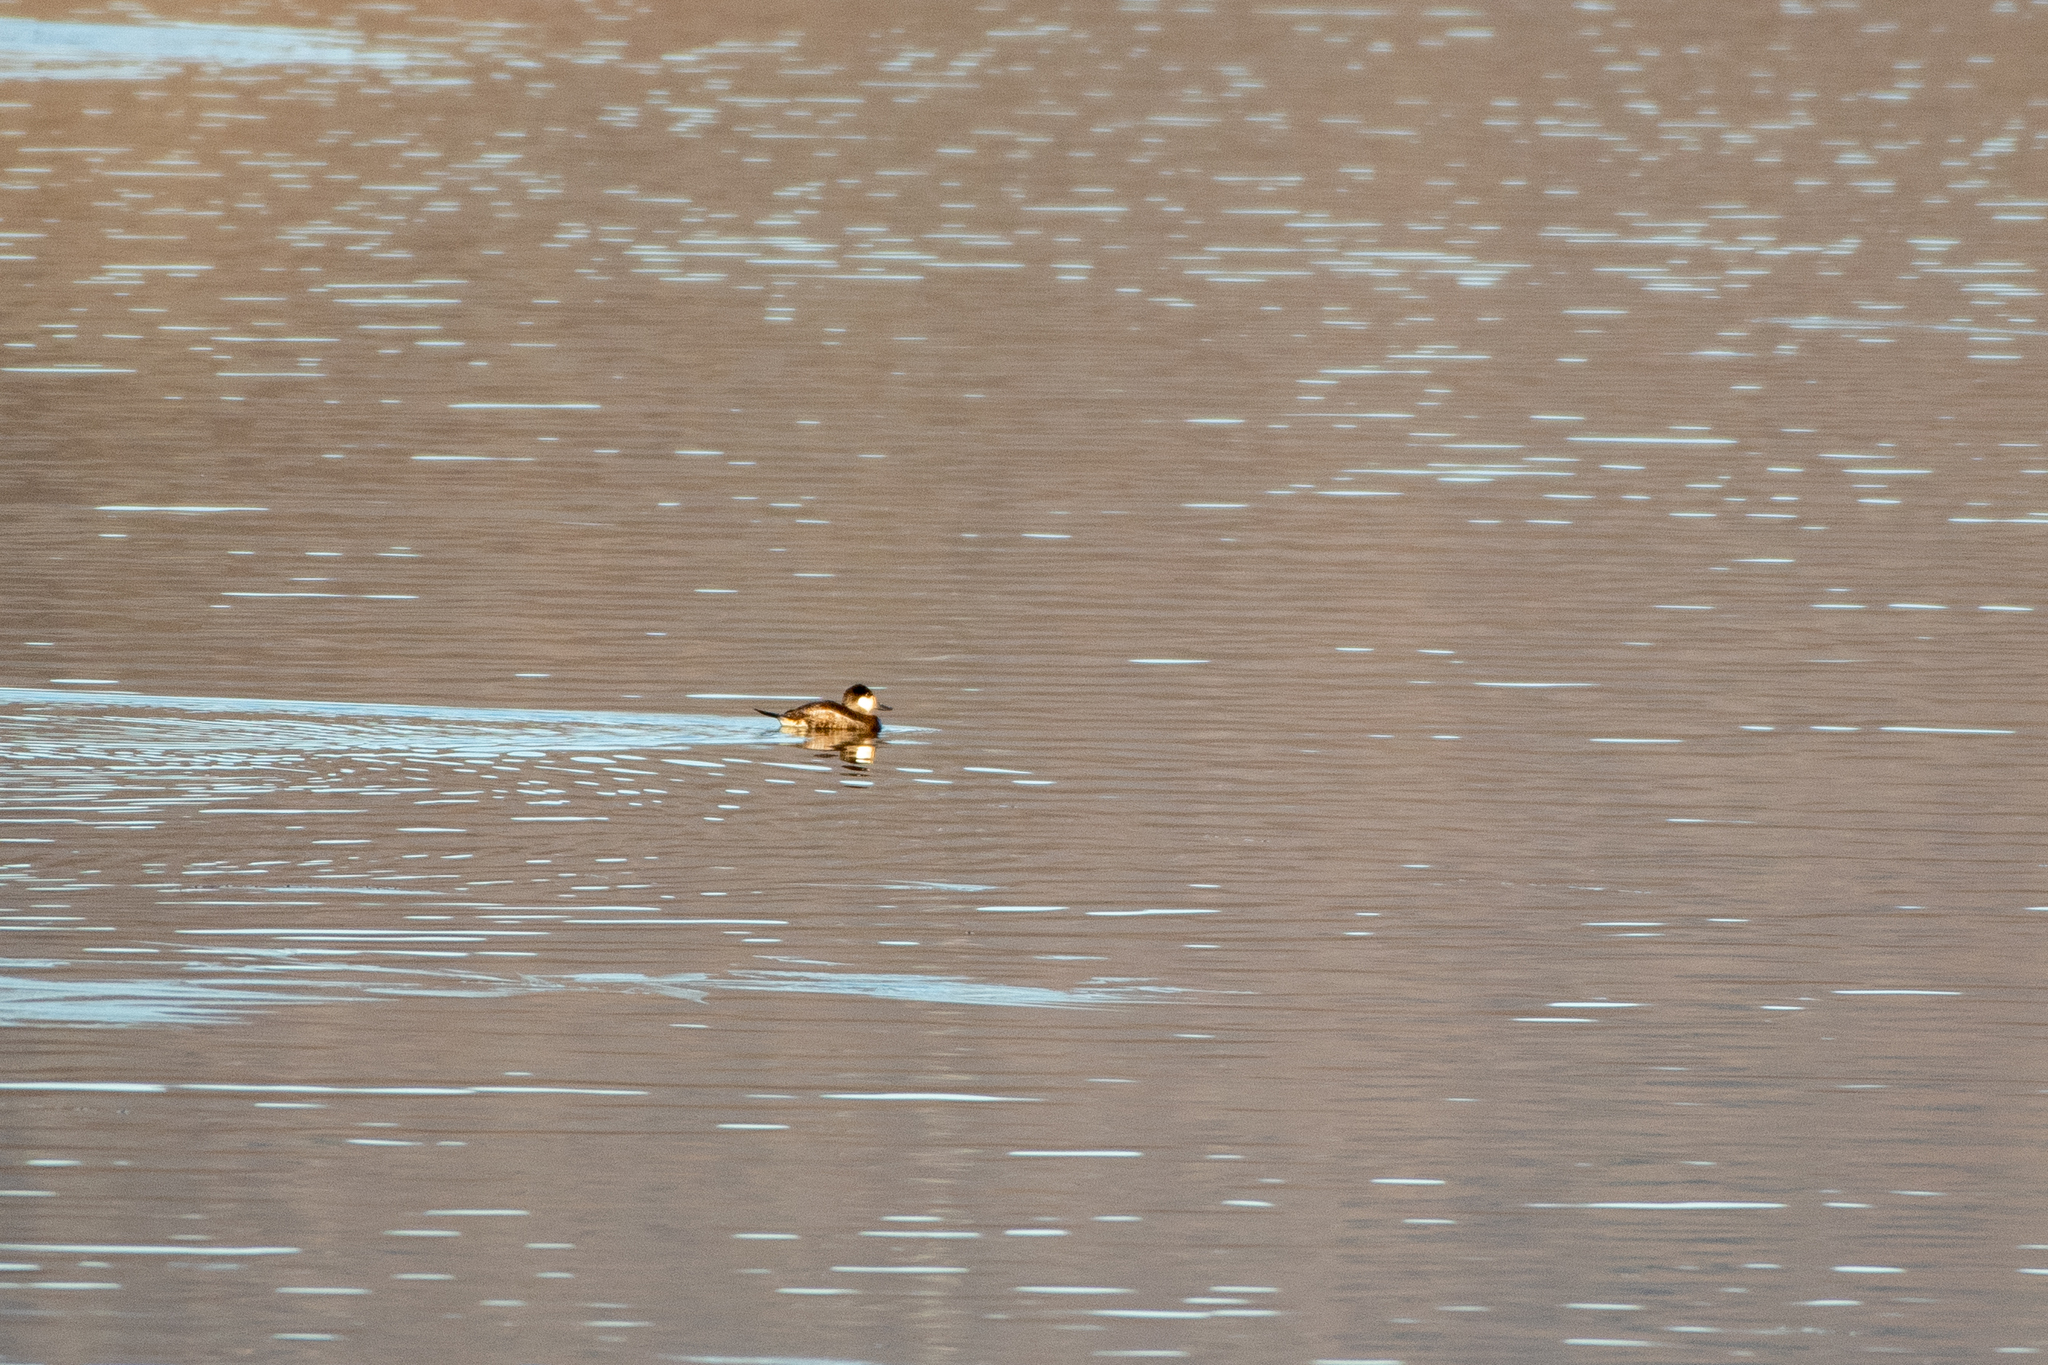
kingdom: Animalia
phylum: Chordata
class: Aves
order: Anseriformes
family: Anatidae
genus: Oxyura
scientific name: Oxyura jamaicensis
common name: Ruddy duck
